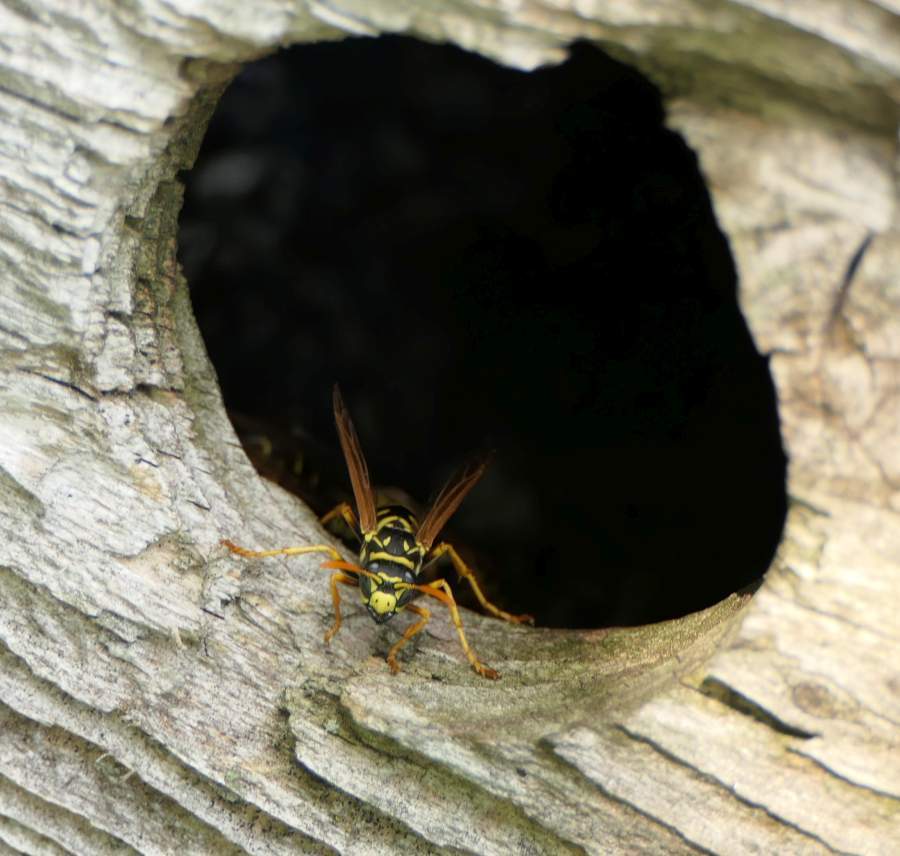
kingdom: Animalia
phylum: Arthropoda
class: Insecta
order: Hymenoptera
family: Eumenidae
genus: Polistes
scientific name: Polistes dominula
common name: Paper wasp
